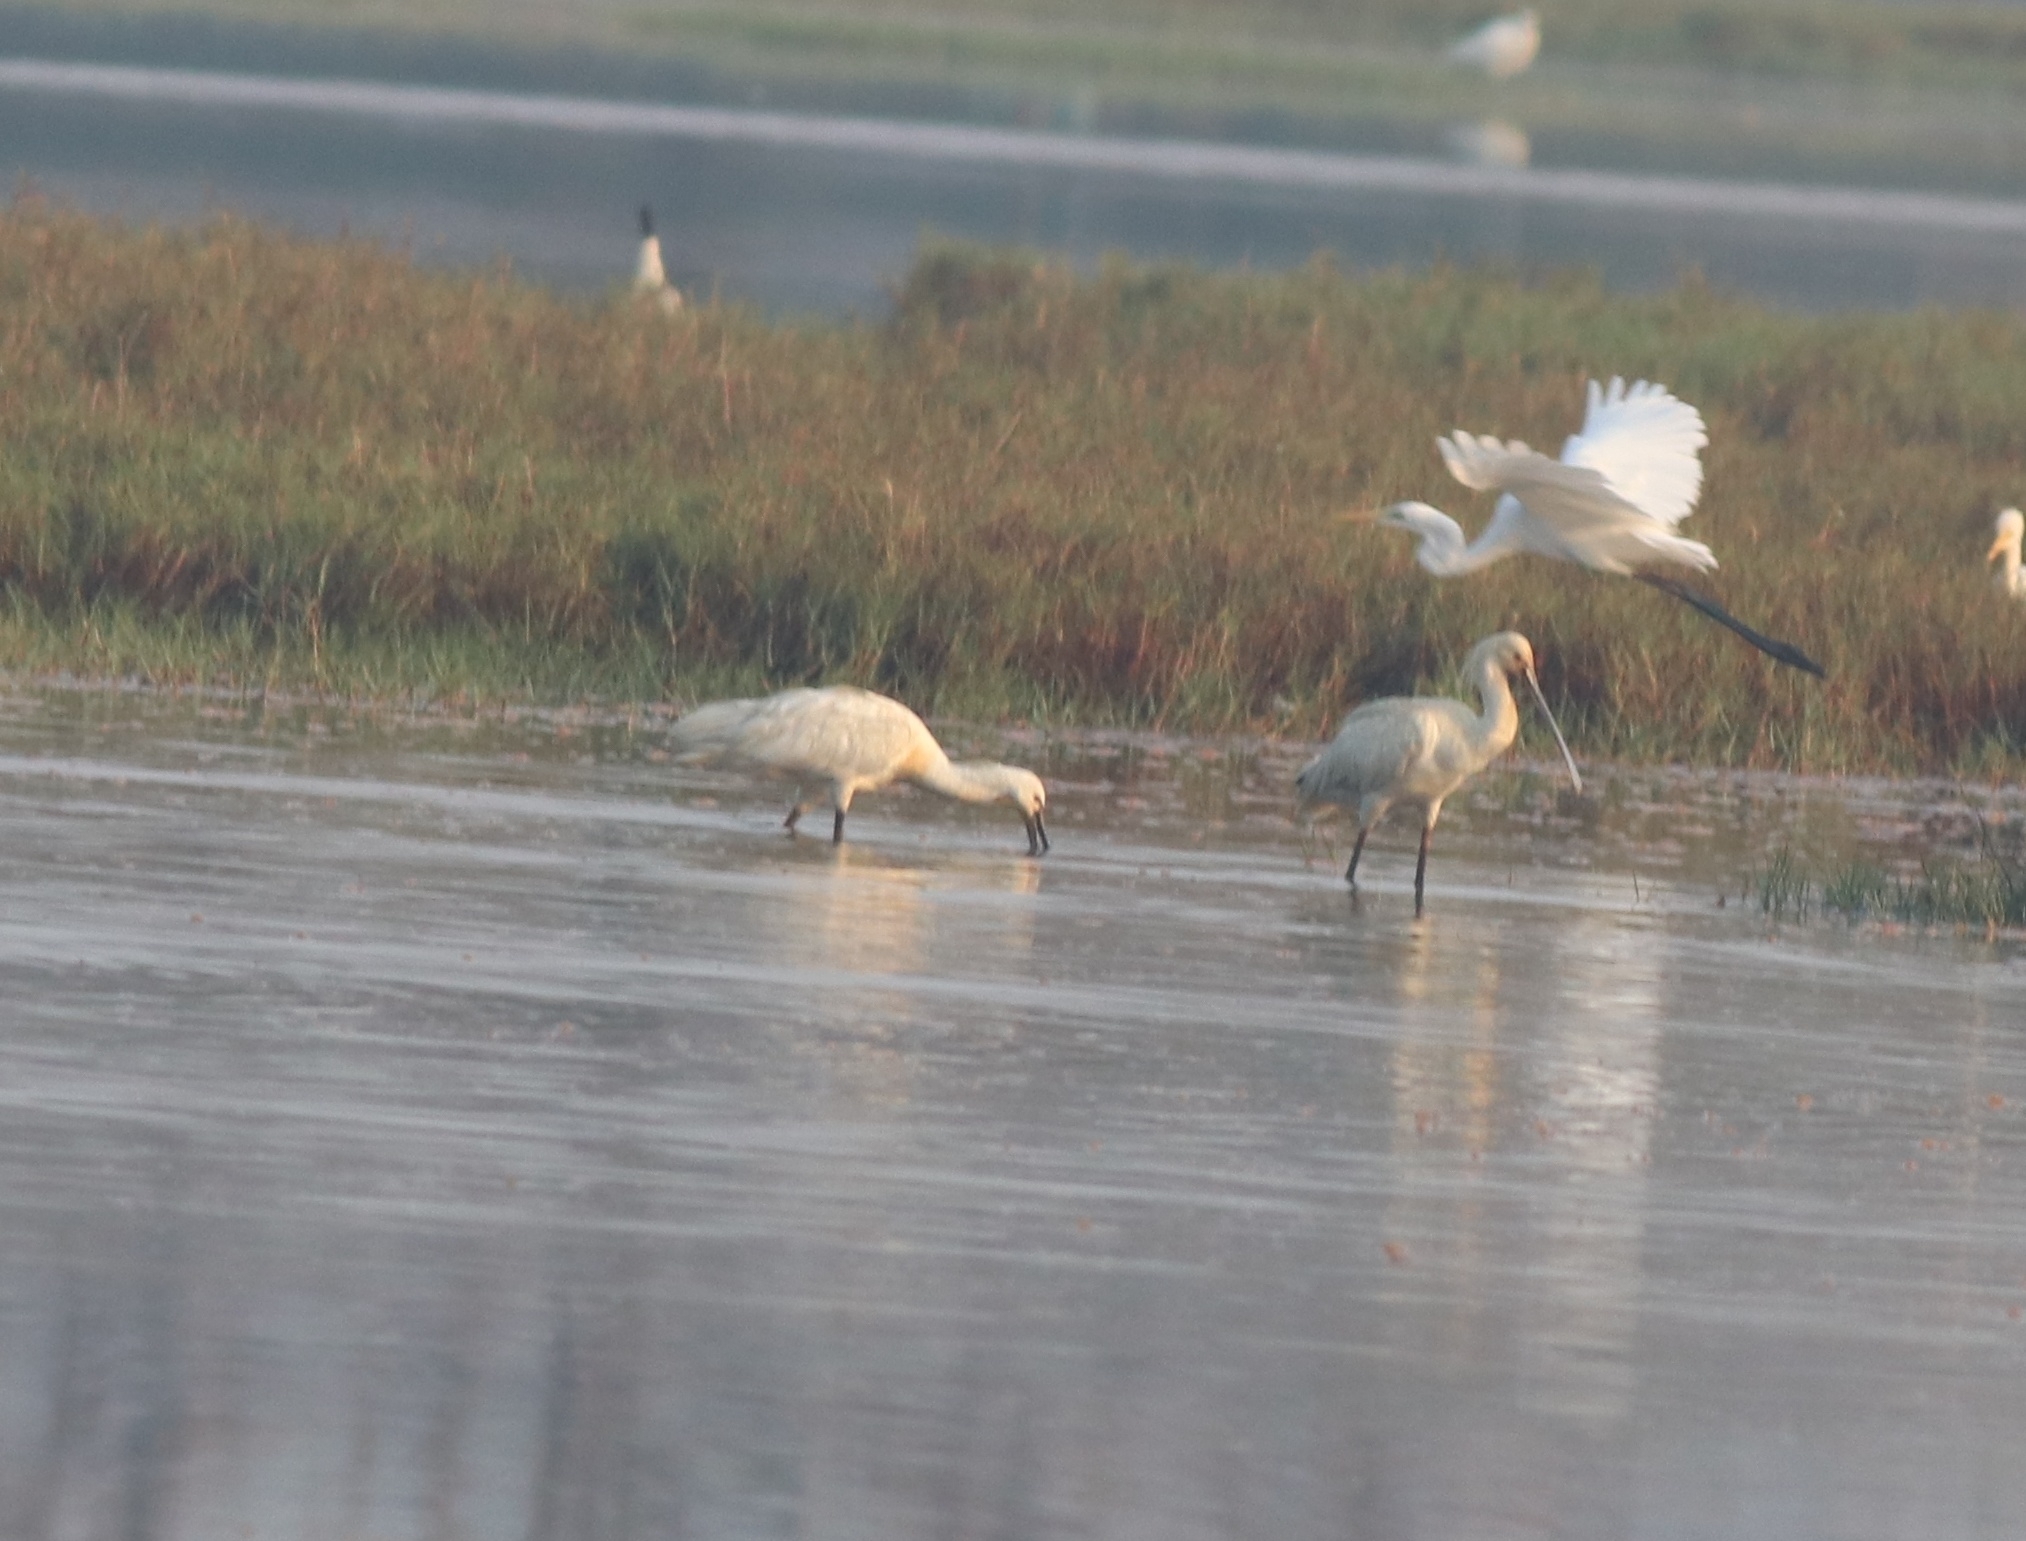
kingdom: Animalia
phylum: Chordata
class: Aves
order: Pelecaniformes
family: Threskiornithidae
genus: Platalea
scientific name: Platalea leucorodia
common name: Eurasian spoonbill
